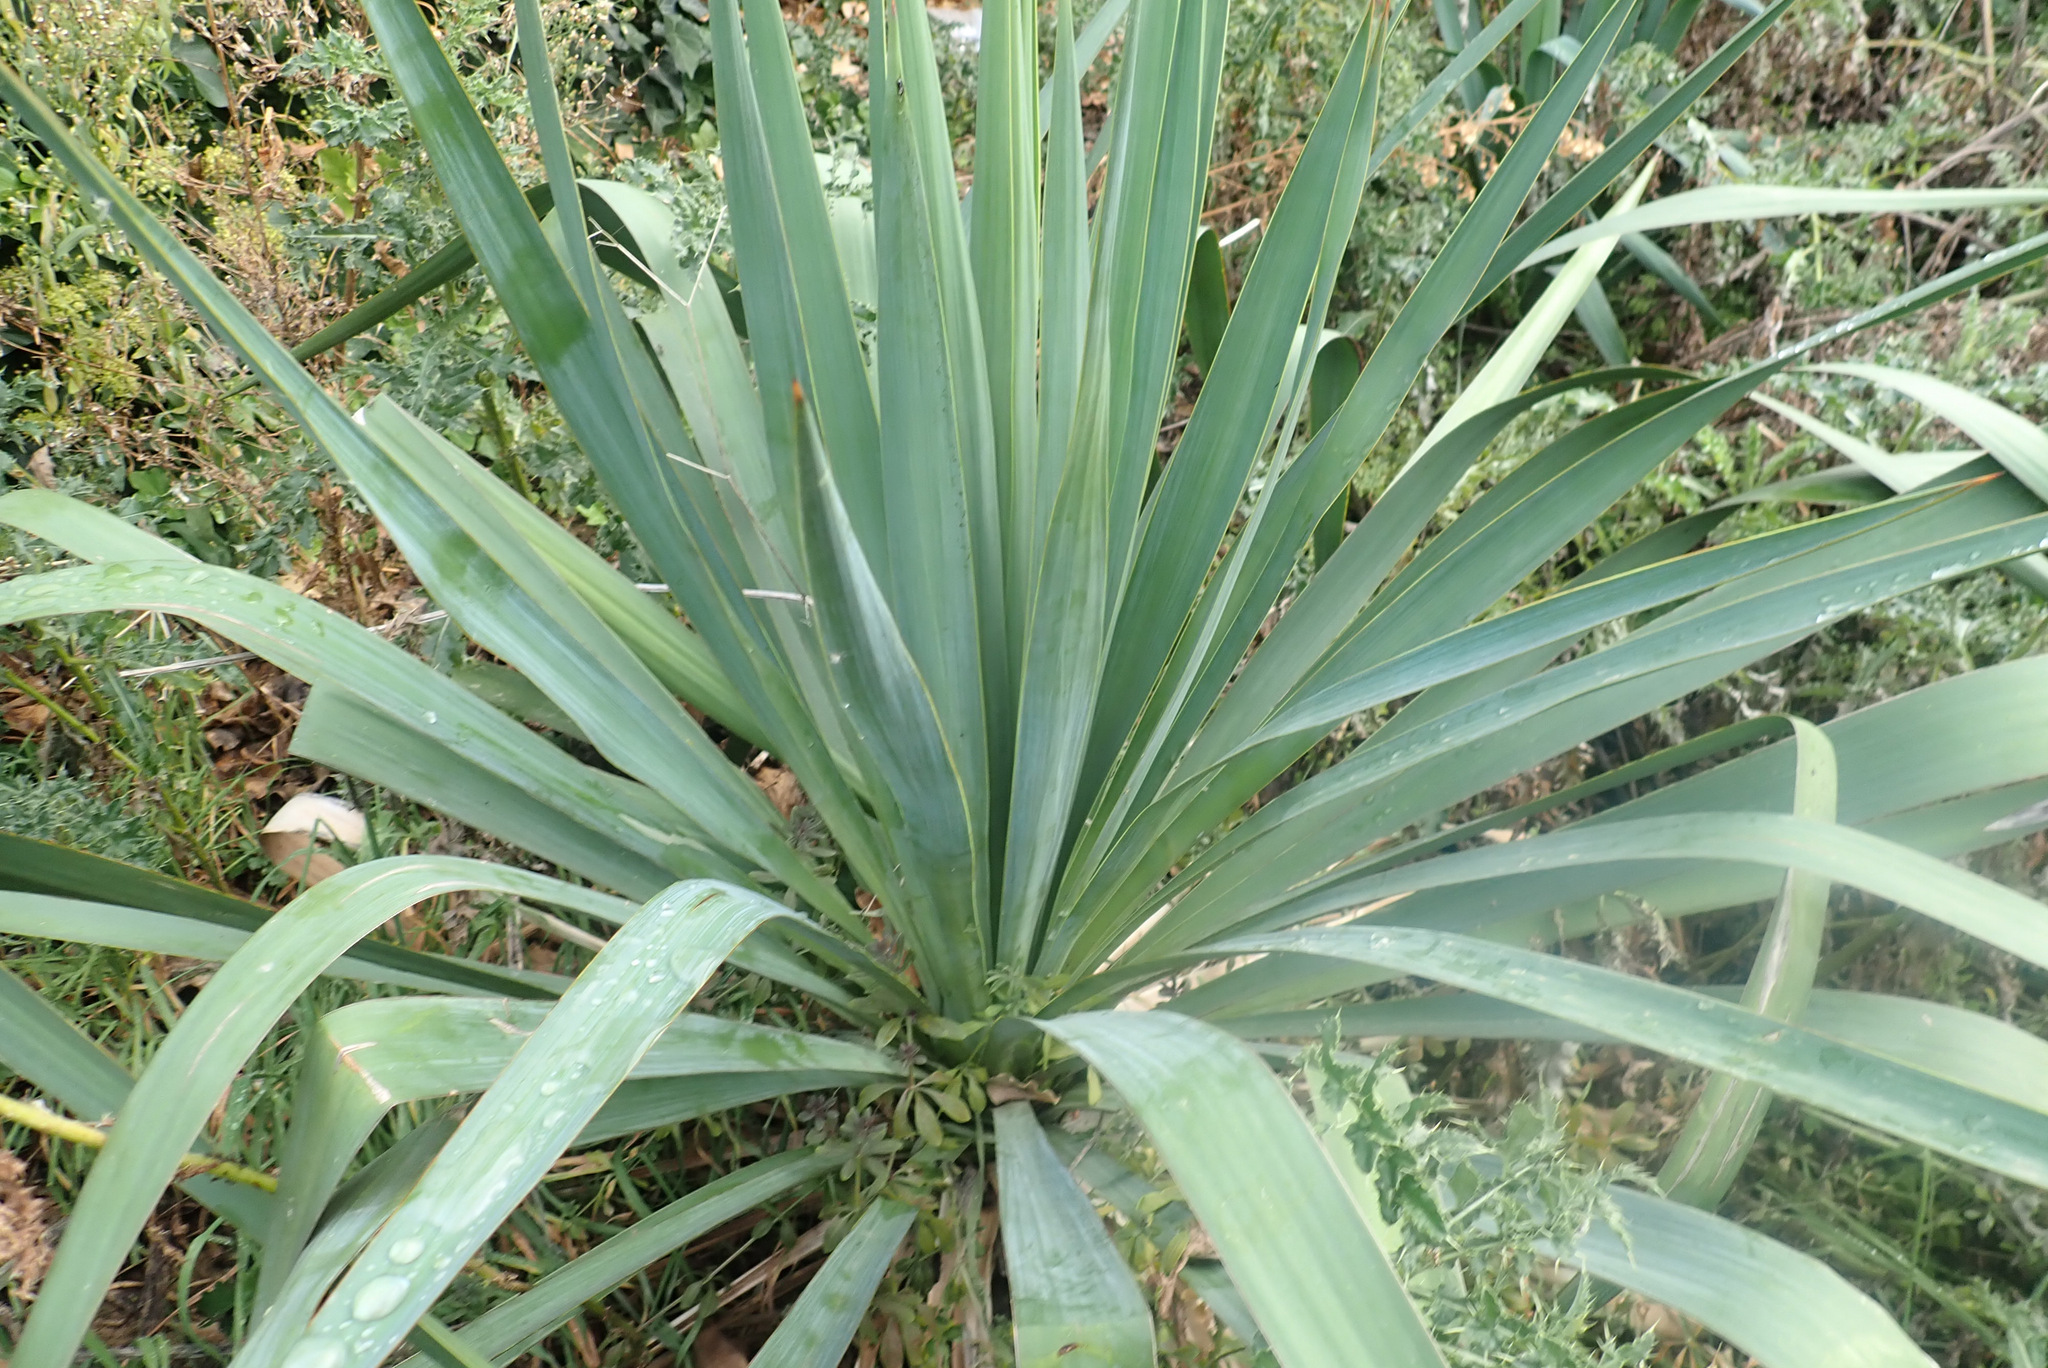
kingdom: Plantae
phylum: Tracheophyta
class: Liliopsida
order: Asparagales
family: Asparagaceae
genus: Yucca
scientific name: Yucca gloriosa
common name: Spanish-dagger
